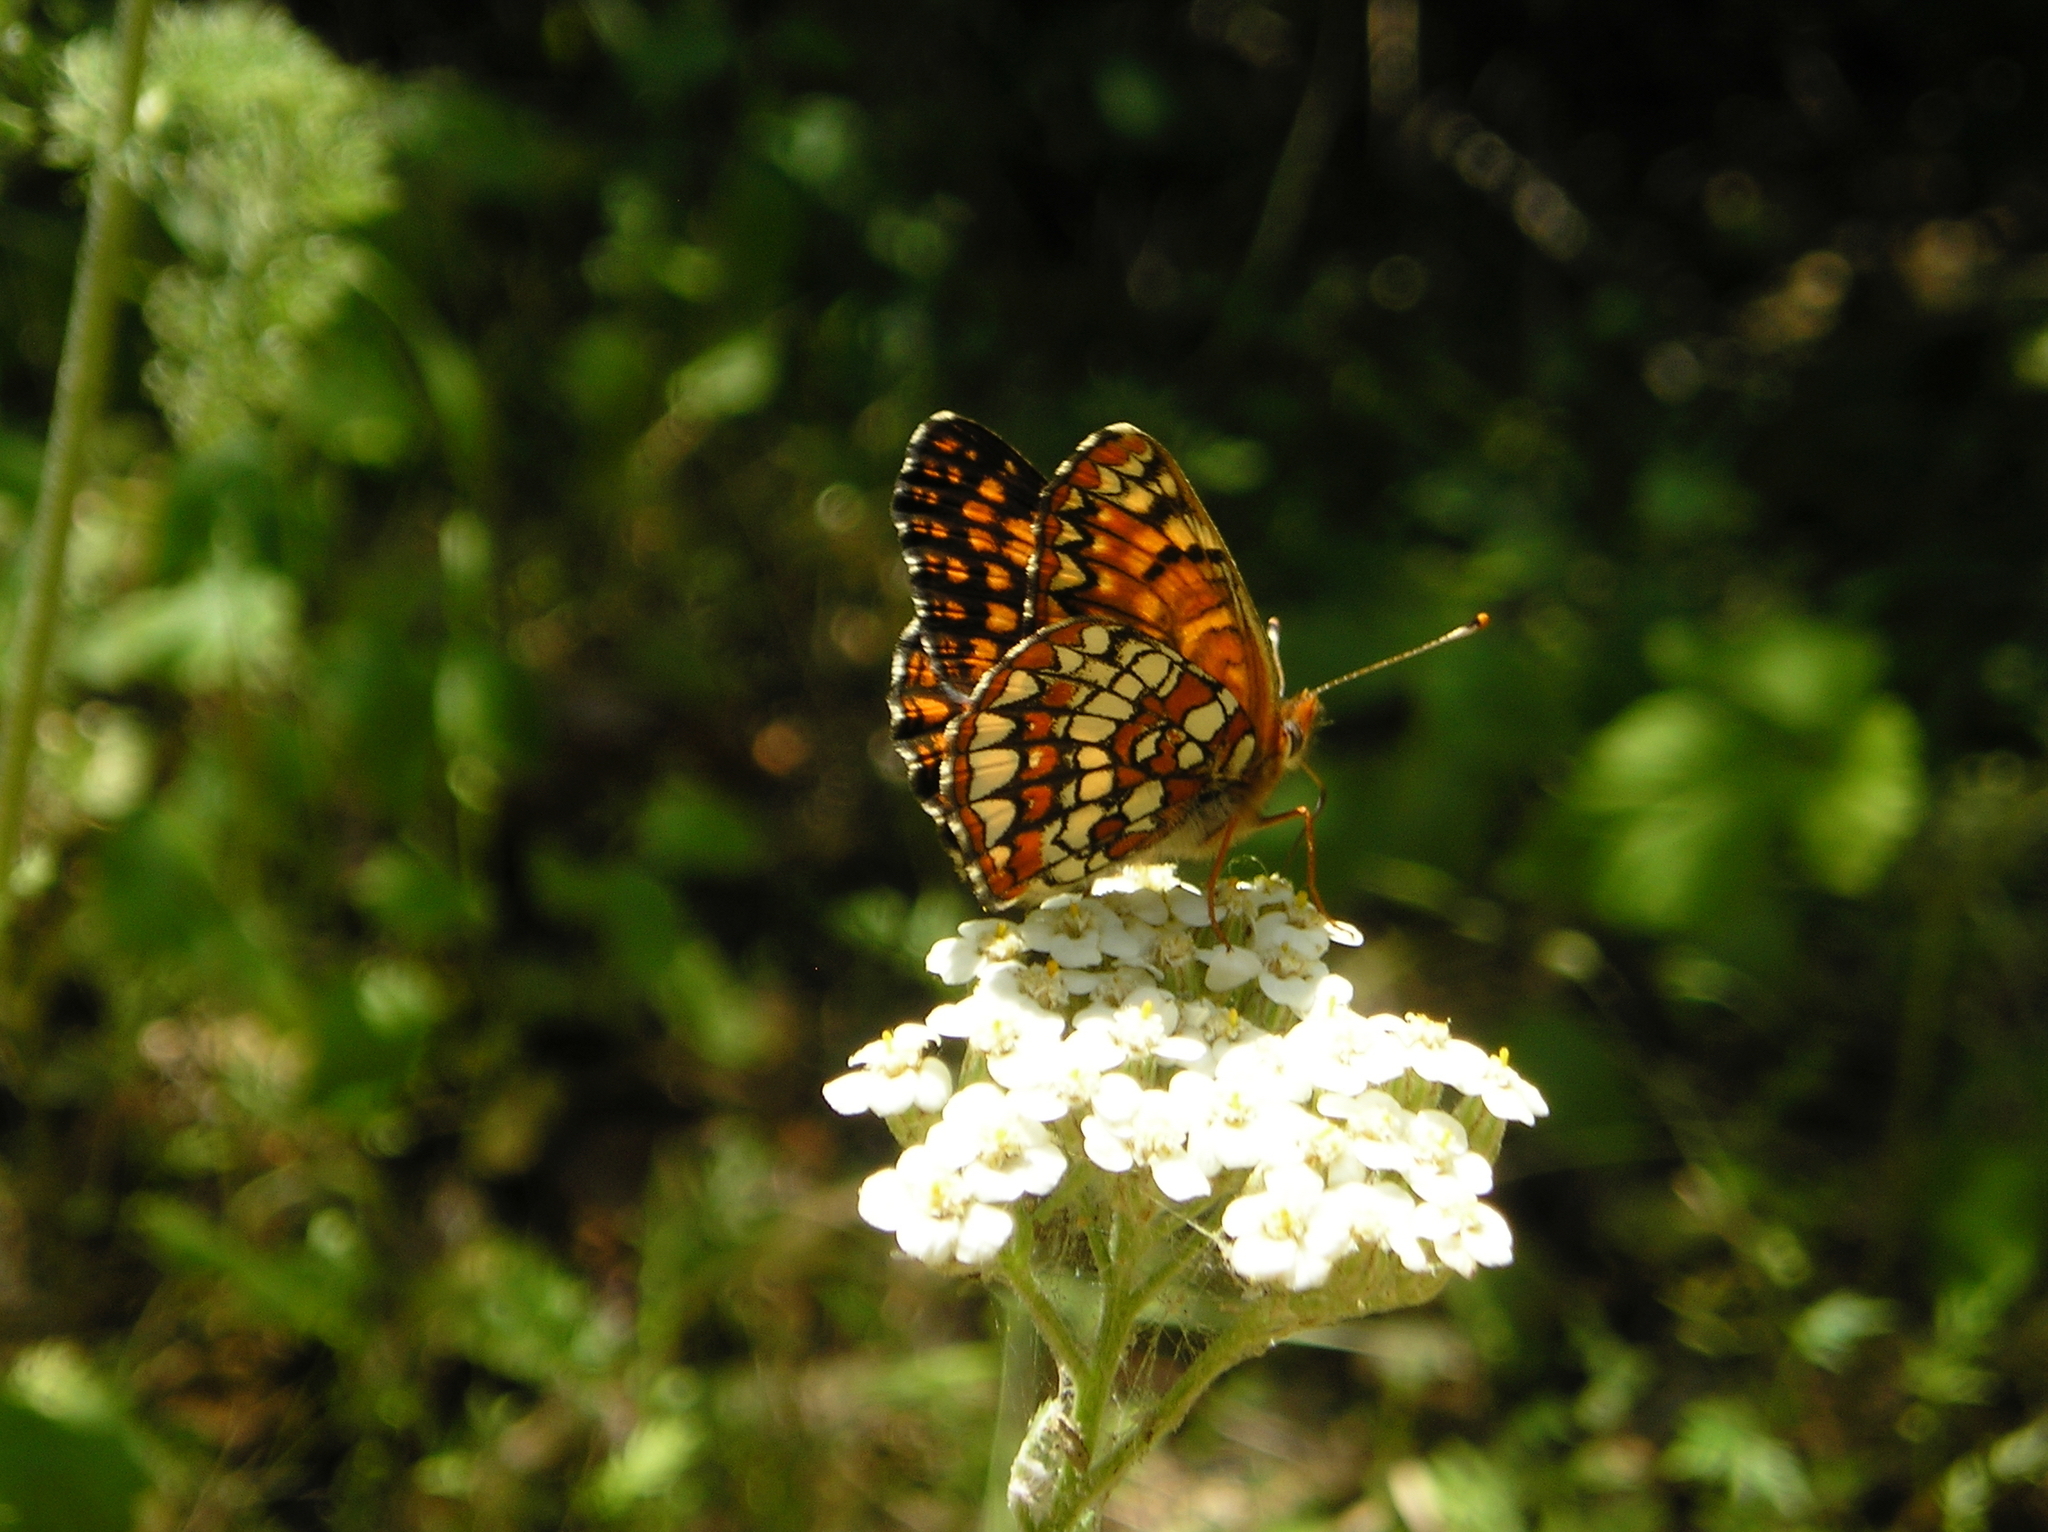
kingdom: Animalia
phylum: Arthropoda
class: Insecta
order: Lepidoptera
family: Nymphalidae
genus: Chlosyne
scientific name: Chlosyne palla
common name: Northern checkerspot
